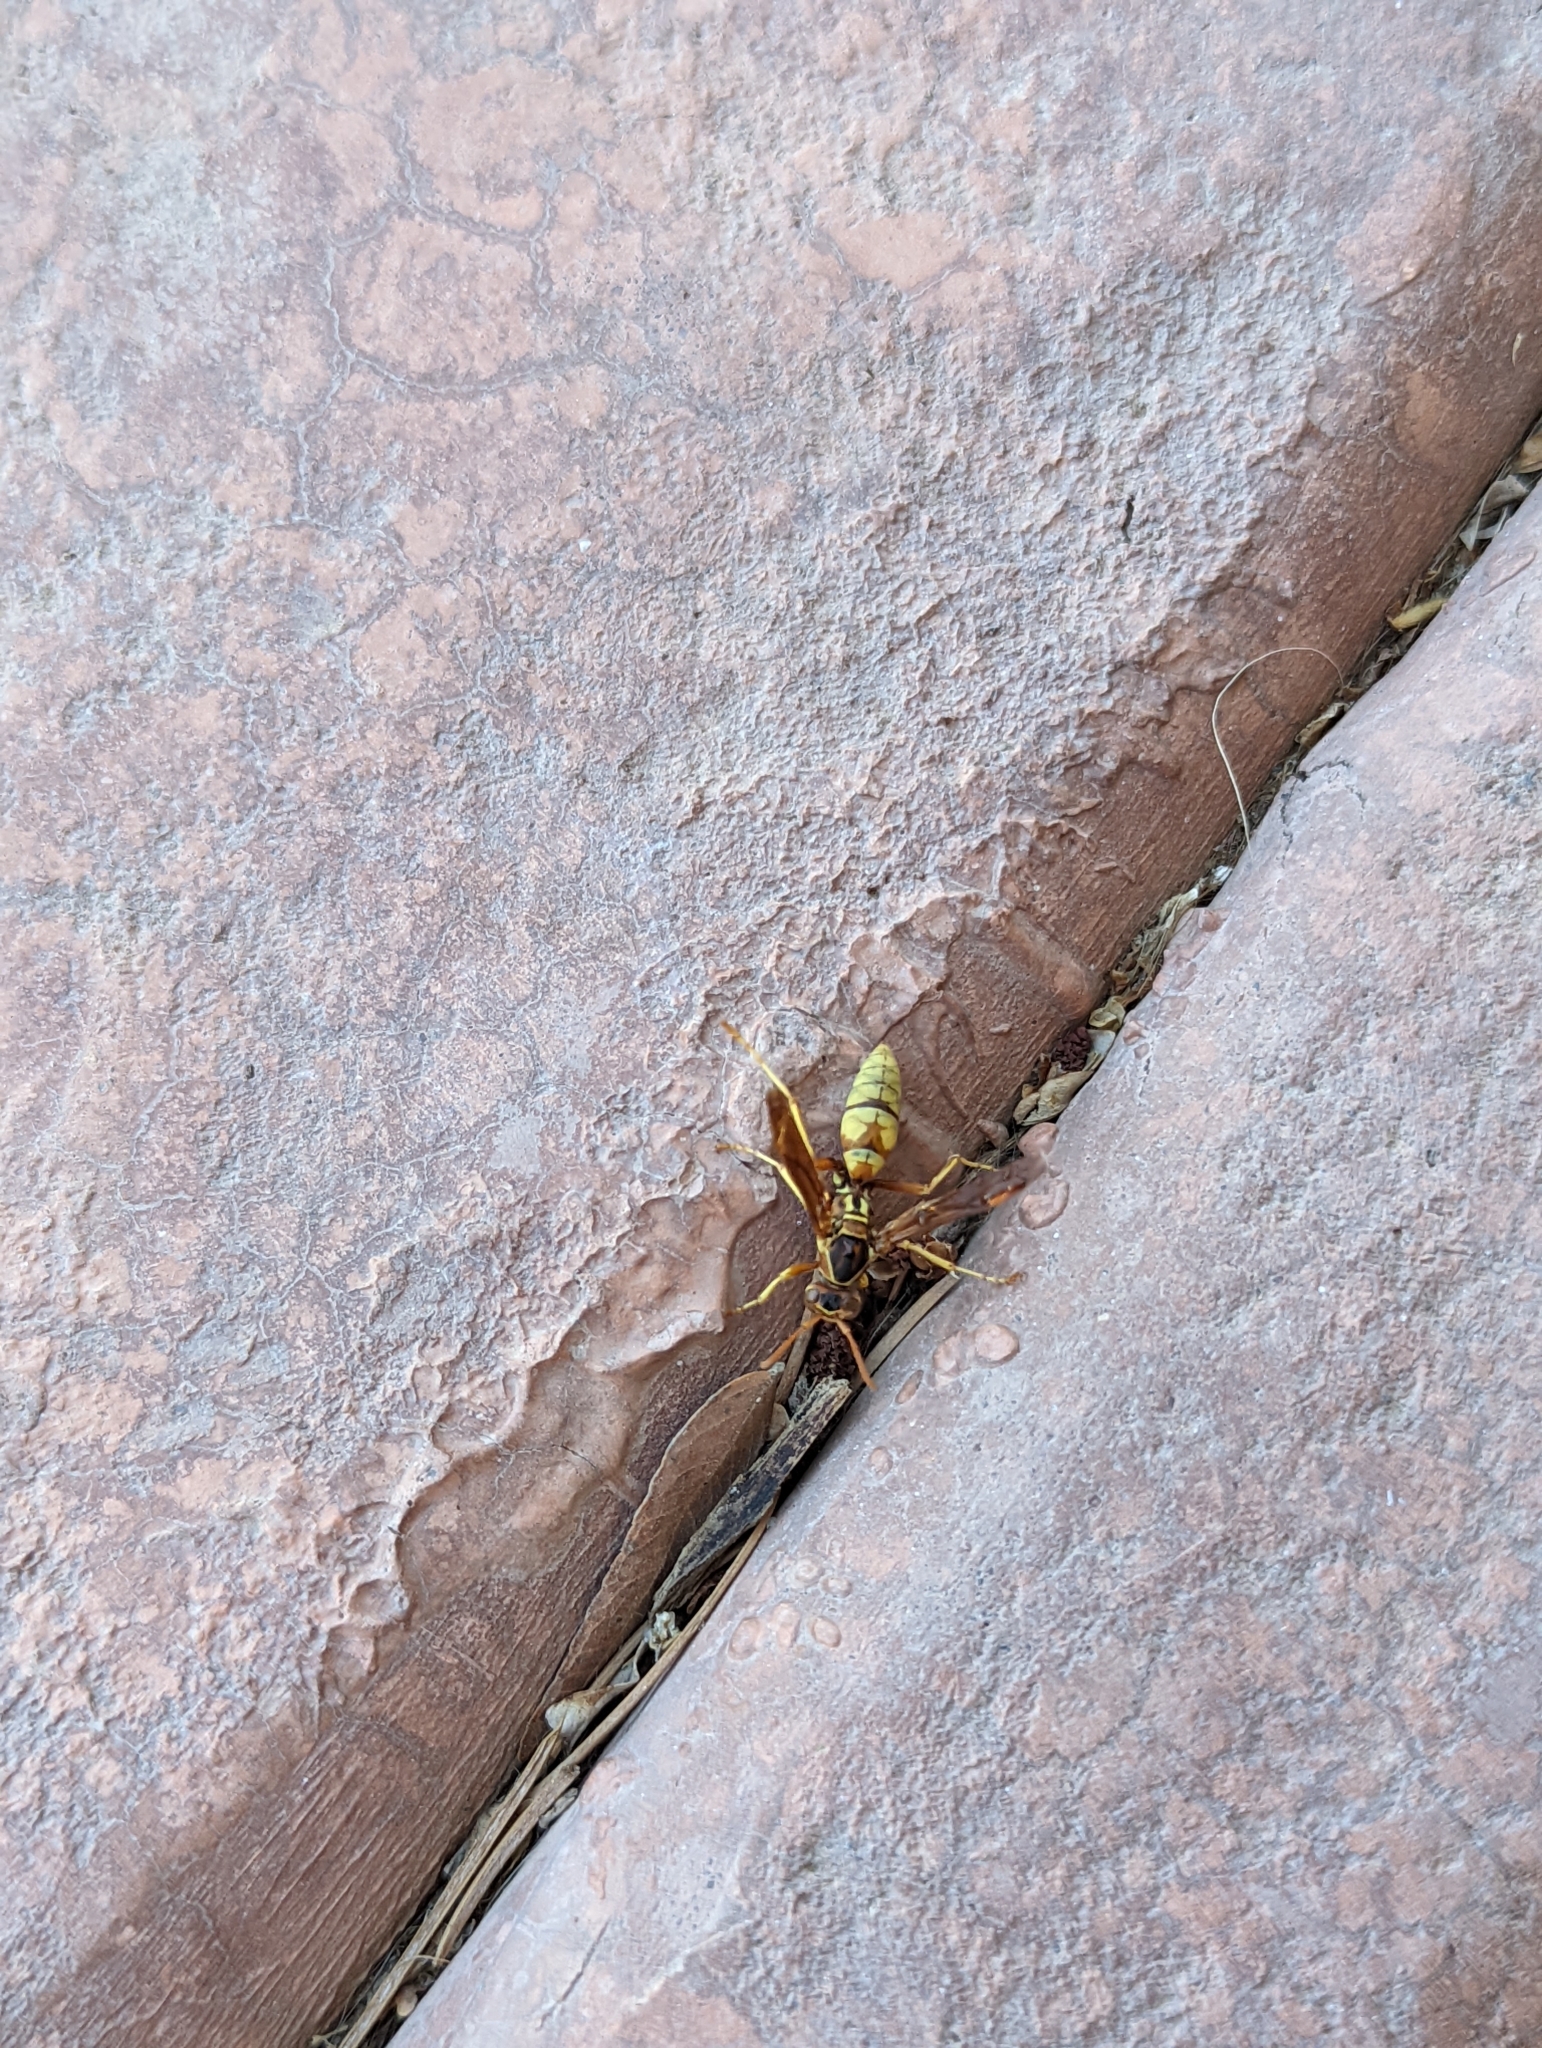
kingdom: Animalia
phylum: Arthropoda
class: Insecta
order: Hymenoptera
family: Eumenidae
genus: Polistes
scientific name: Polistes aurifer
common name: Paper wasp
